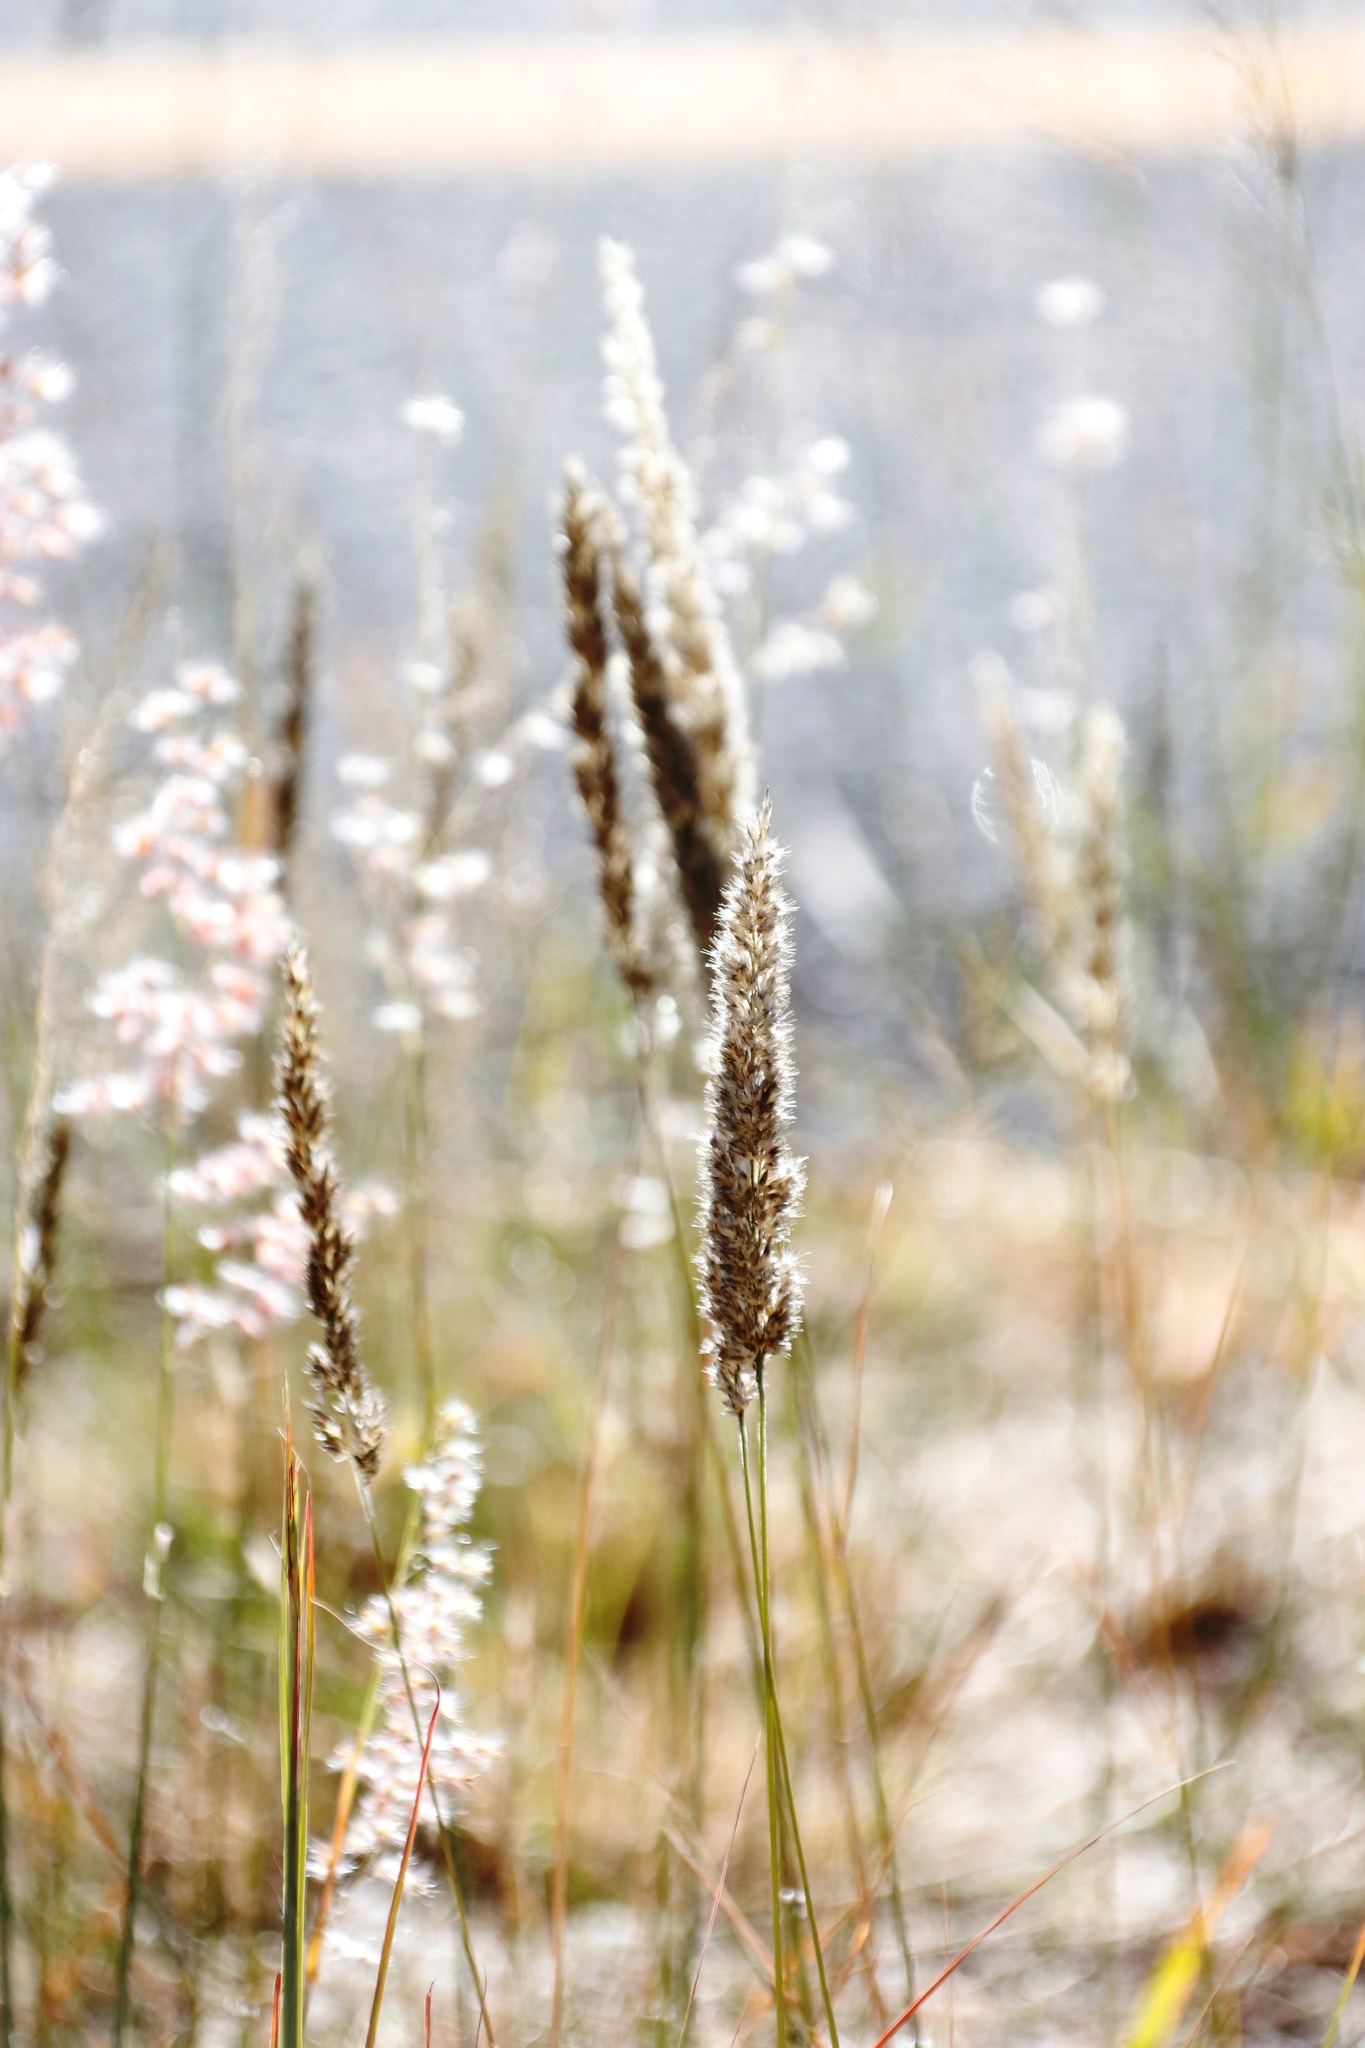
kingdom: Plantae
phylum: Tracheophyta
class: Liliopsida
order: Poales
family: Poaceae
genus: Enneapogon
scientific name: Enneapogon cenchroides
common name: Soft feather pappusgrass
